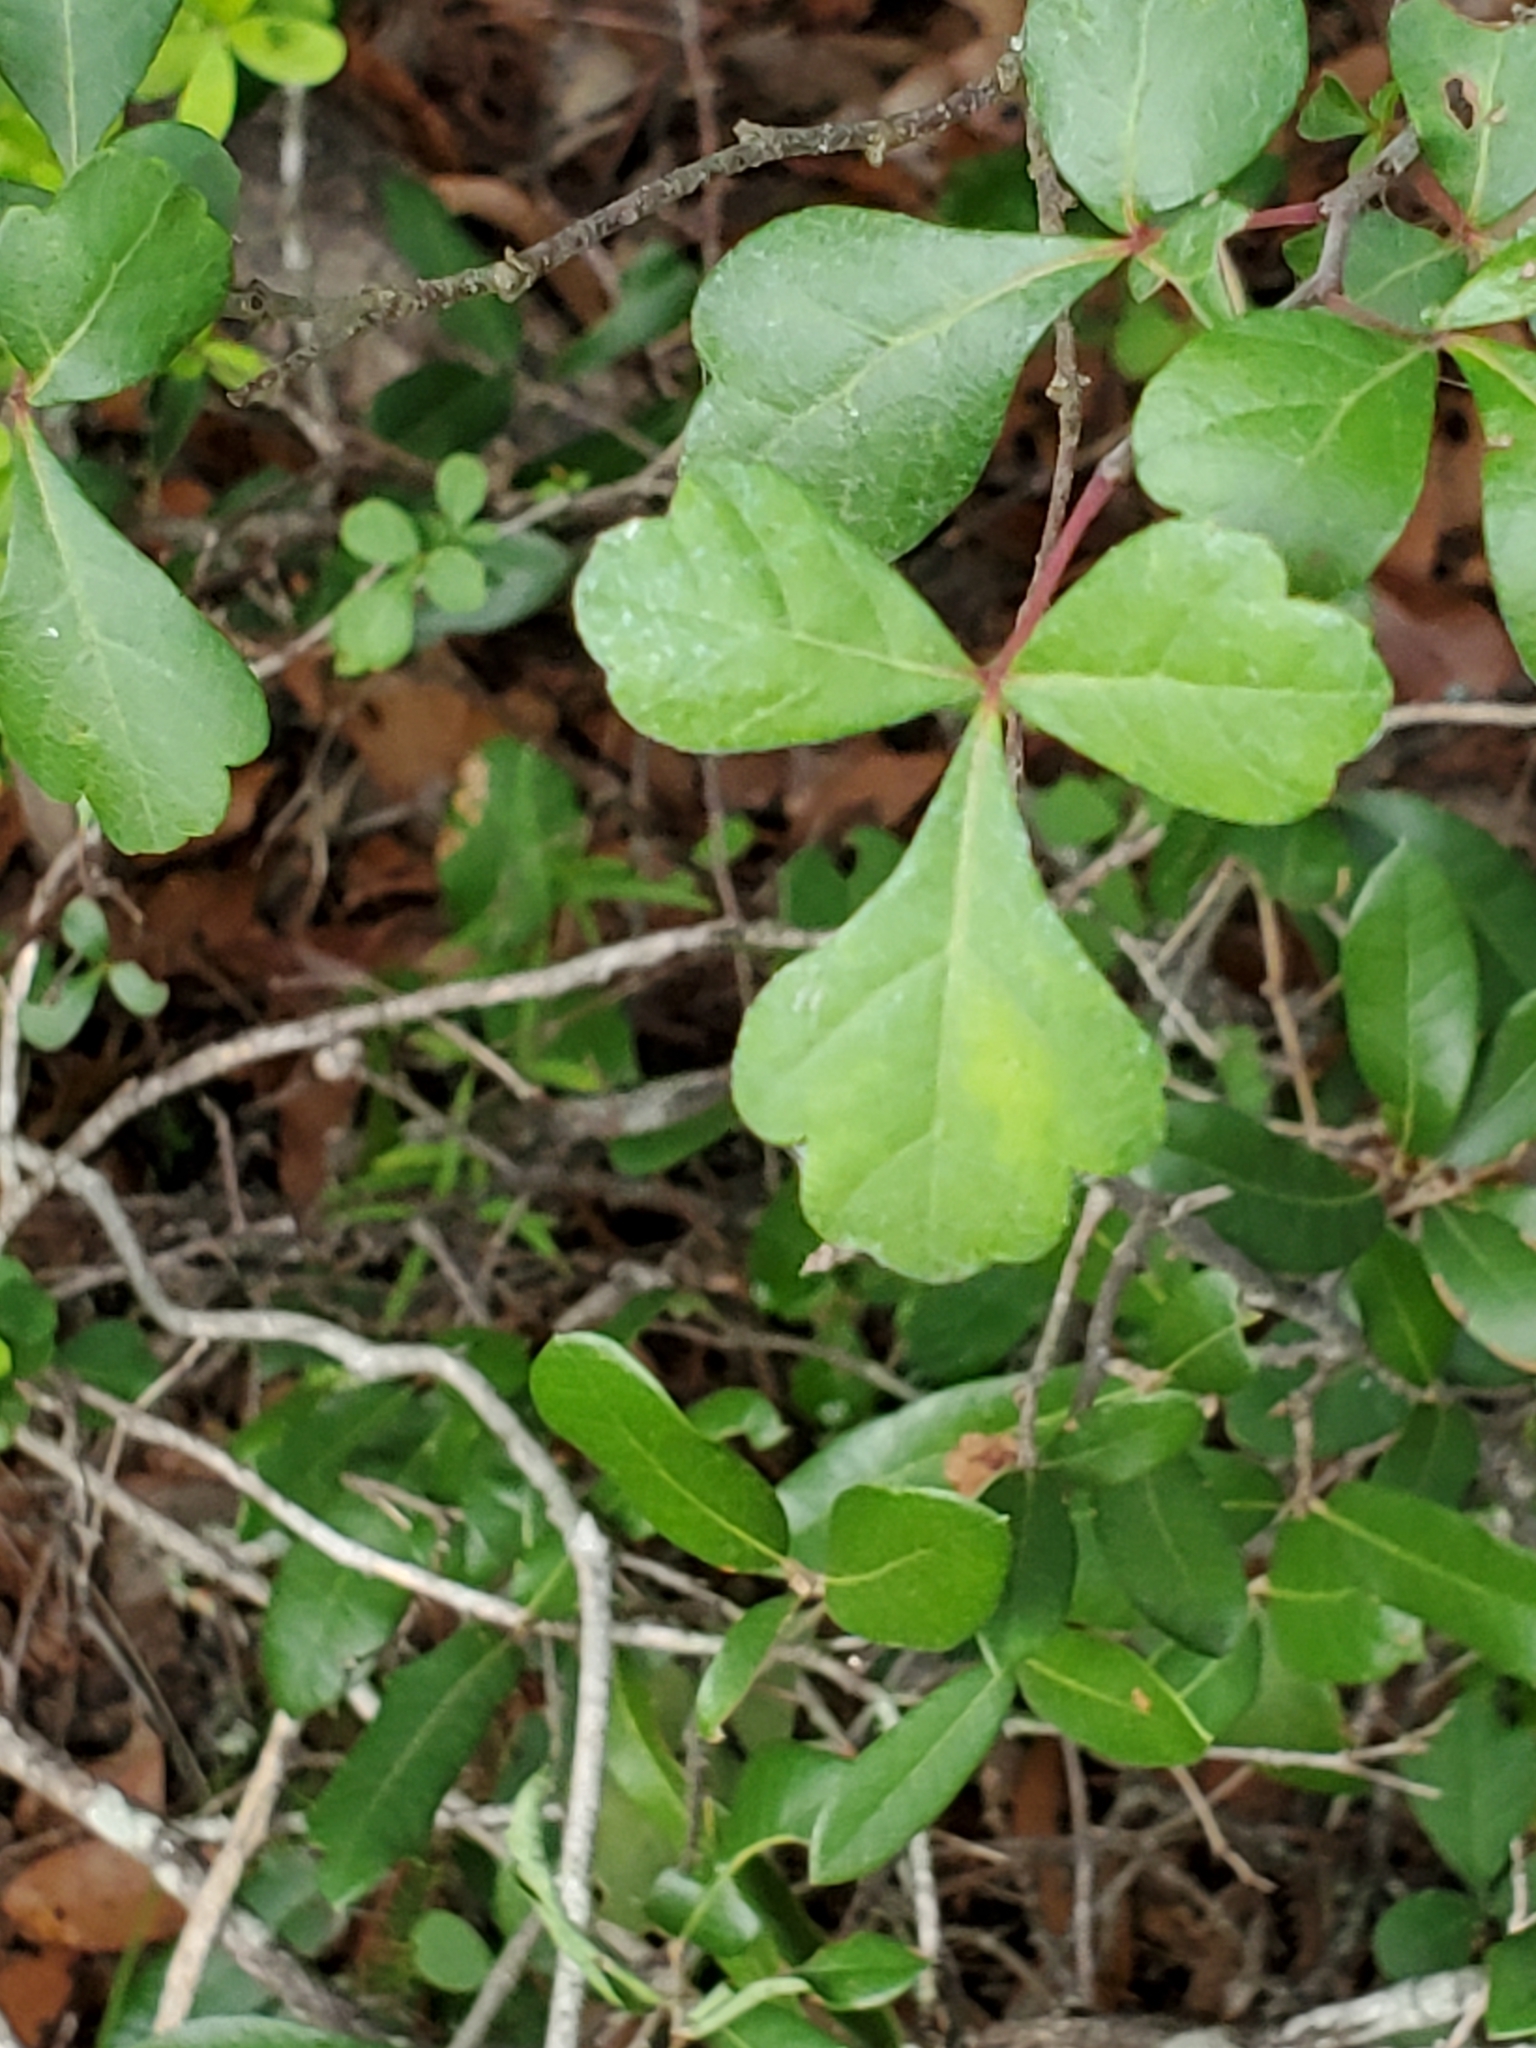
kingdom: Plantae
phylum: Tracheophyta
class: Magnoliopsida
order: Sapindales
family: Anacardiaceae
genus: Rhus
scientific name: Rhus aromatica
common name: Aromatic sumac
